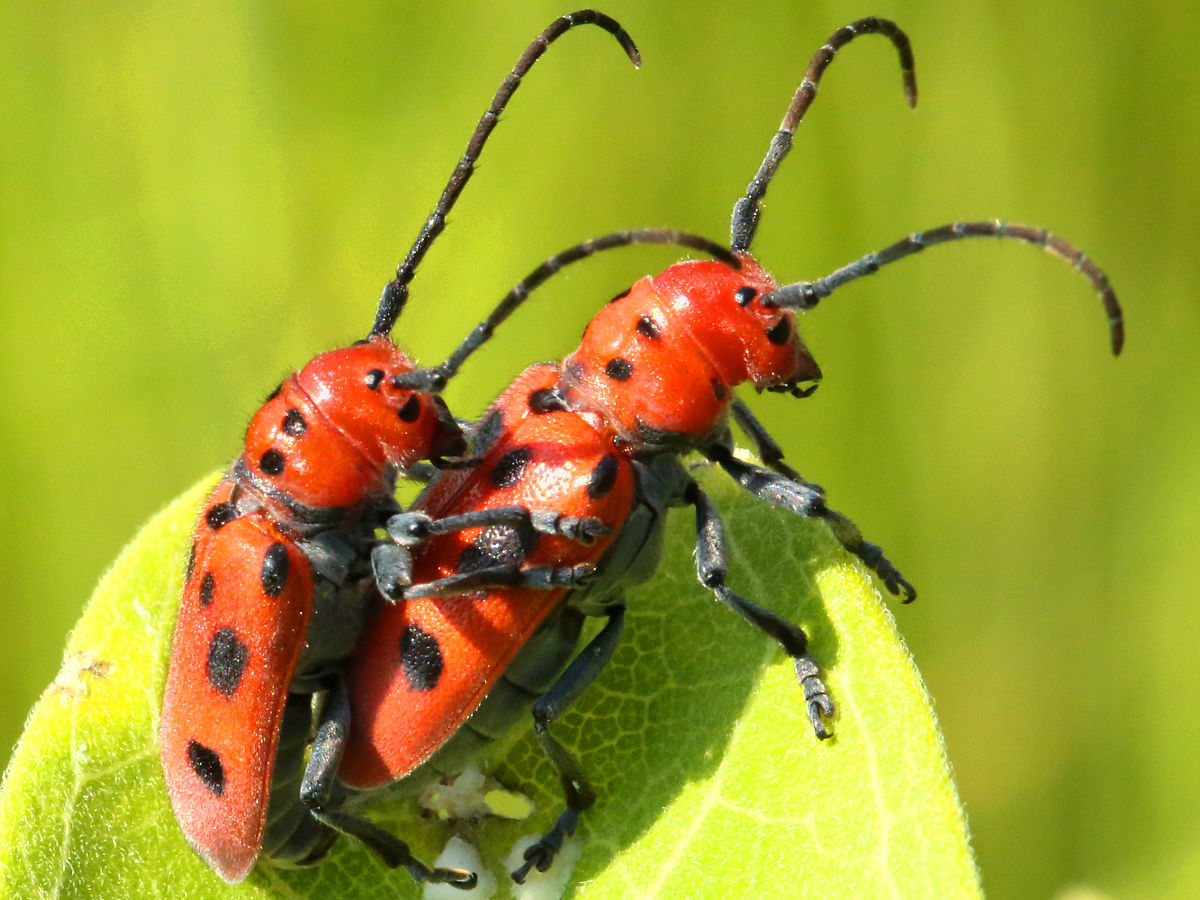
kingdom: Animalia
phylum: Arthropoda
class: Insecta
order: Coleoptera
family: Cerambycidae
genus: Tetraopes
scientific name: Tetraopes tetrophthalmus
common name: Red milkweed beetle
